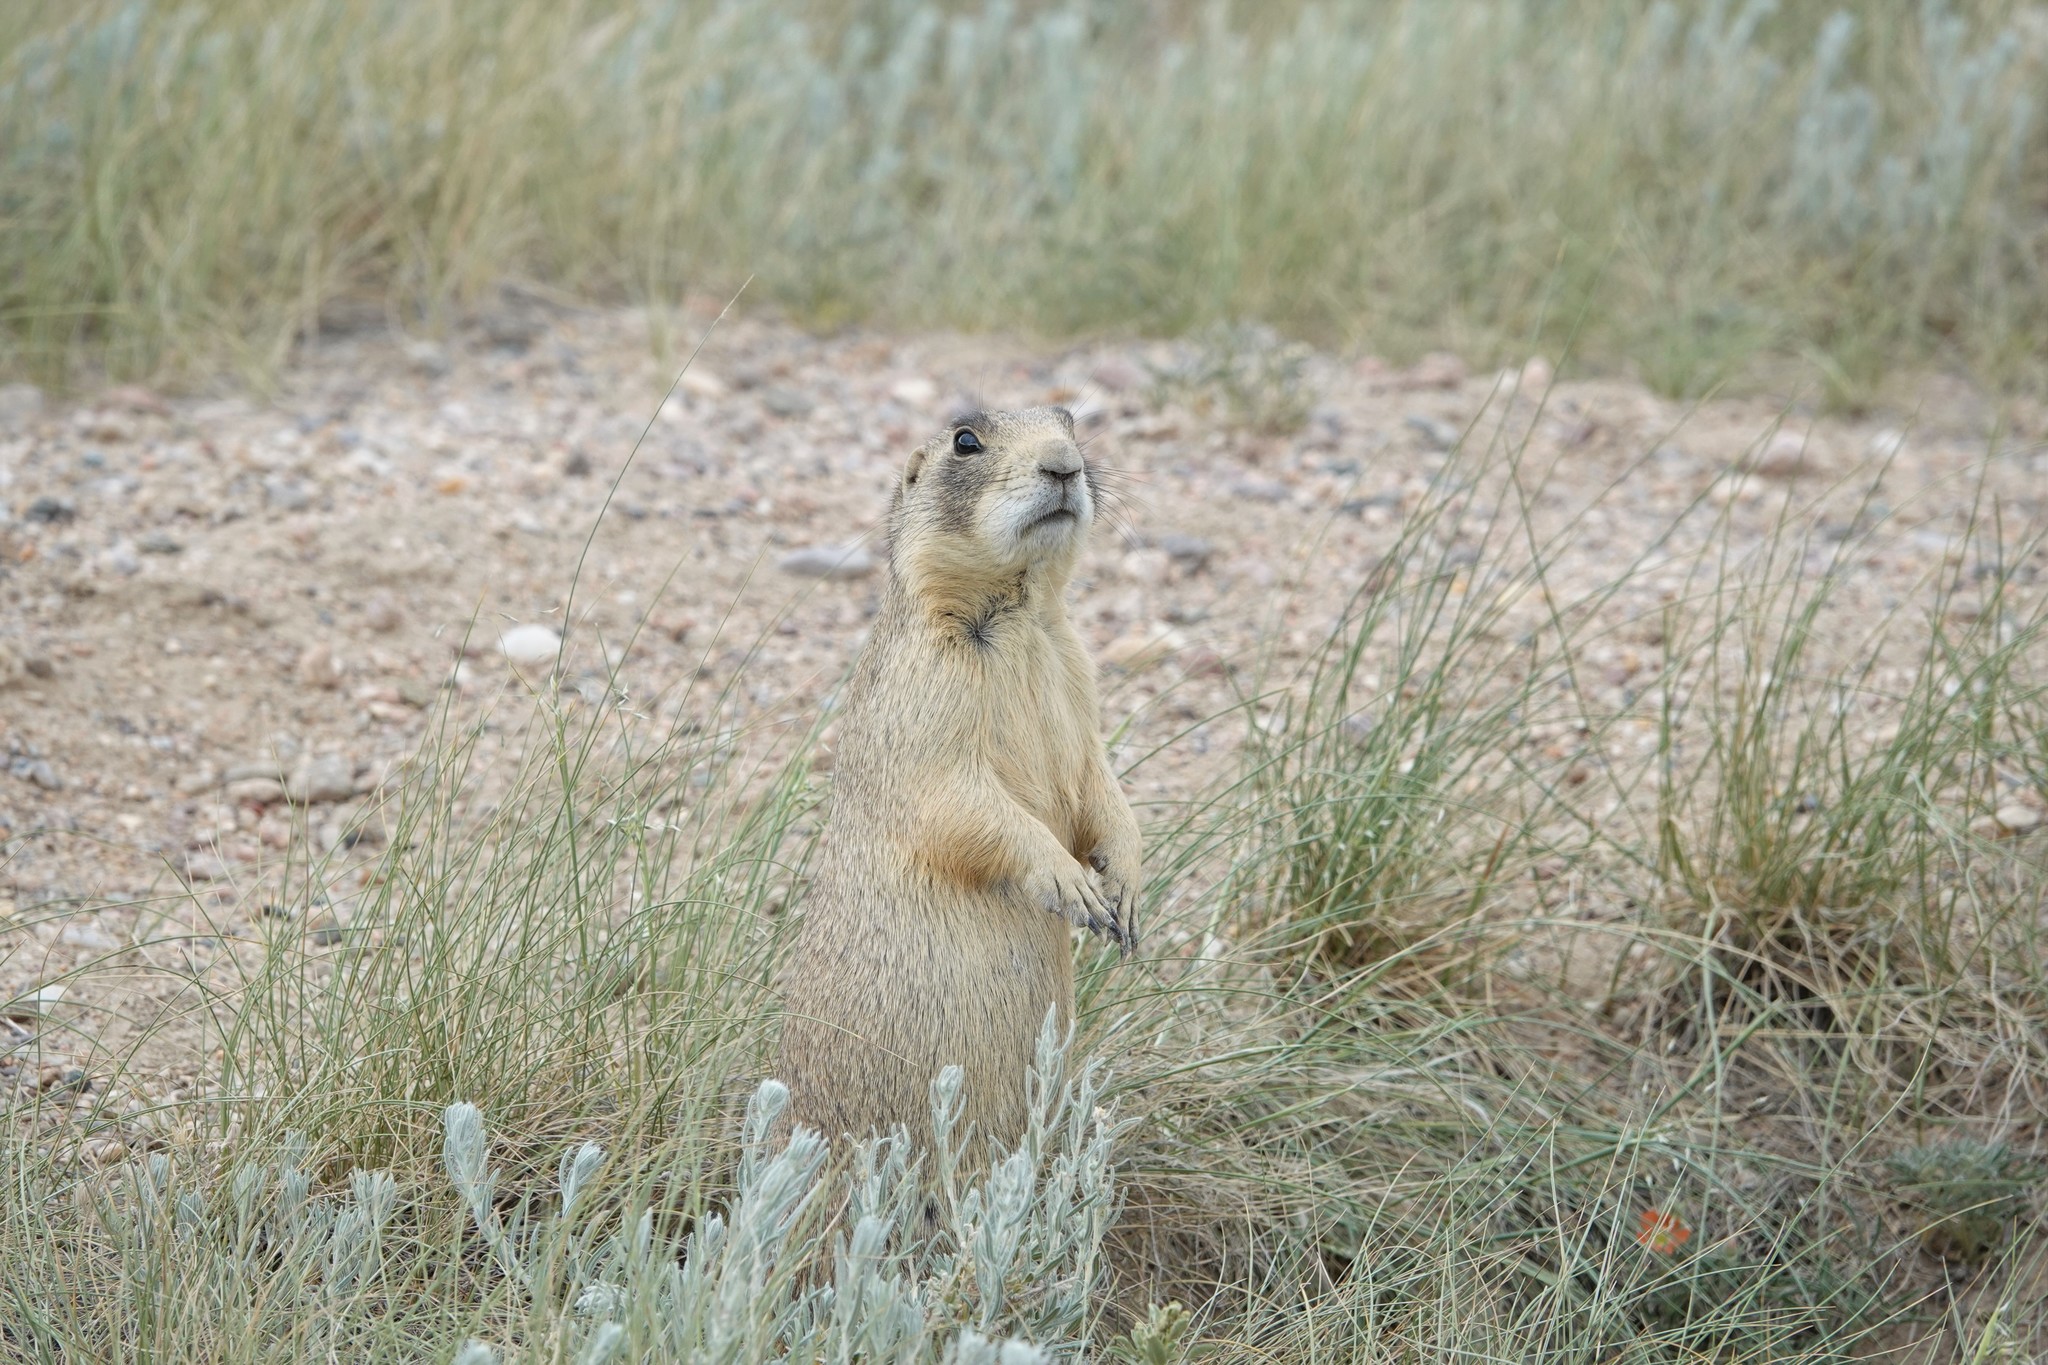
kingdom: Animalia
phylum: Chordata
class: Mammalia
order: Rodentia
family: Sciuridae
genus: Cynomys
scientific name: Cynomys leucurus
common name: White-tailed prairie dog
